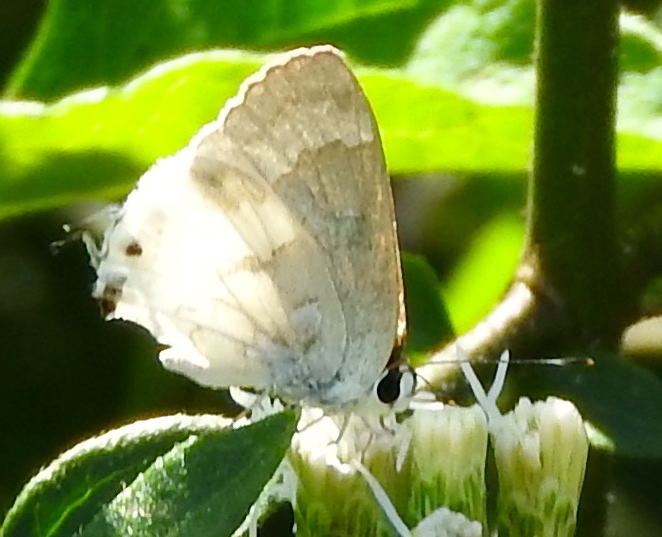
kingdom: Animalia
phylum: Arthropoda
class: Insecta
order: Lepidoptera
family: Lycaenidae
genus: Strymon
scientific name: Strymon albata
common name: White scrub-hairstreak
